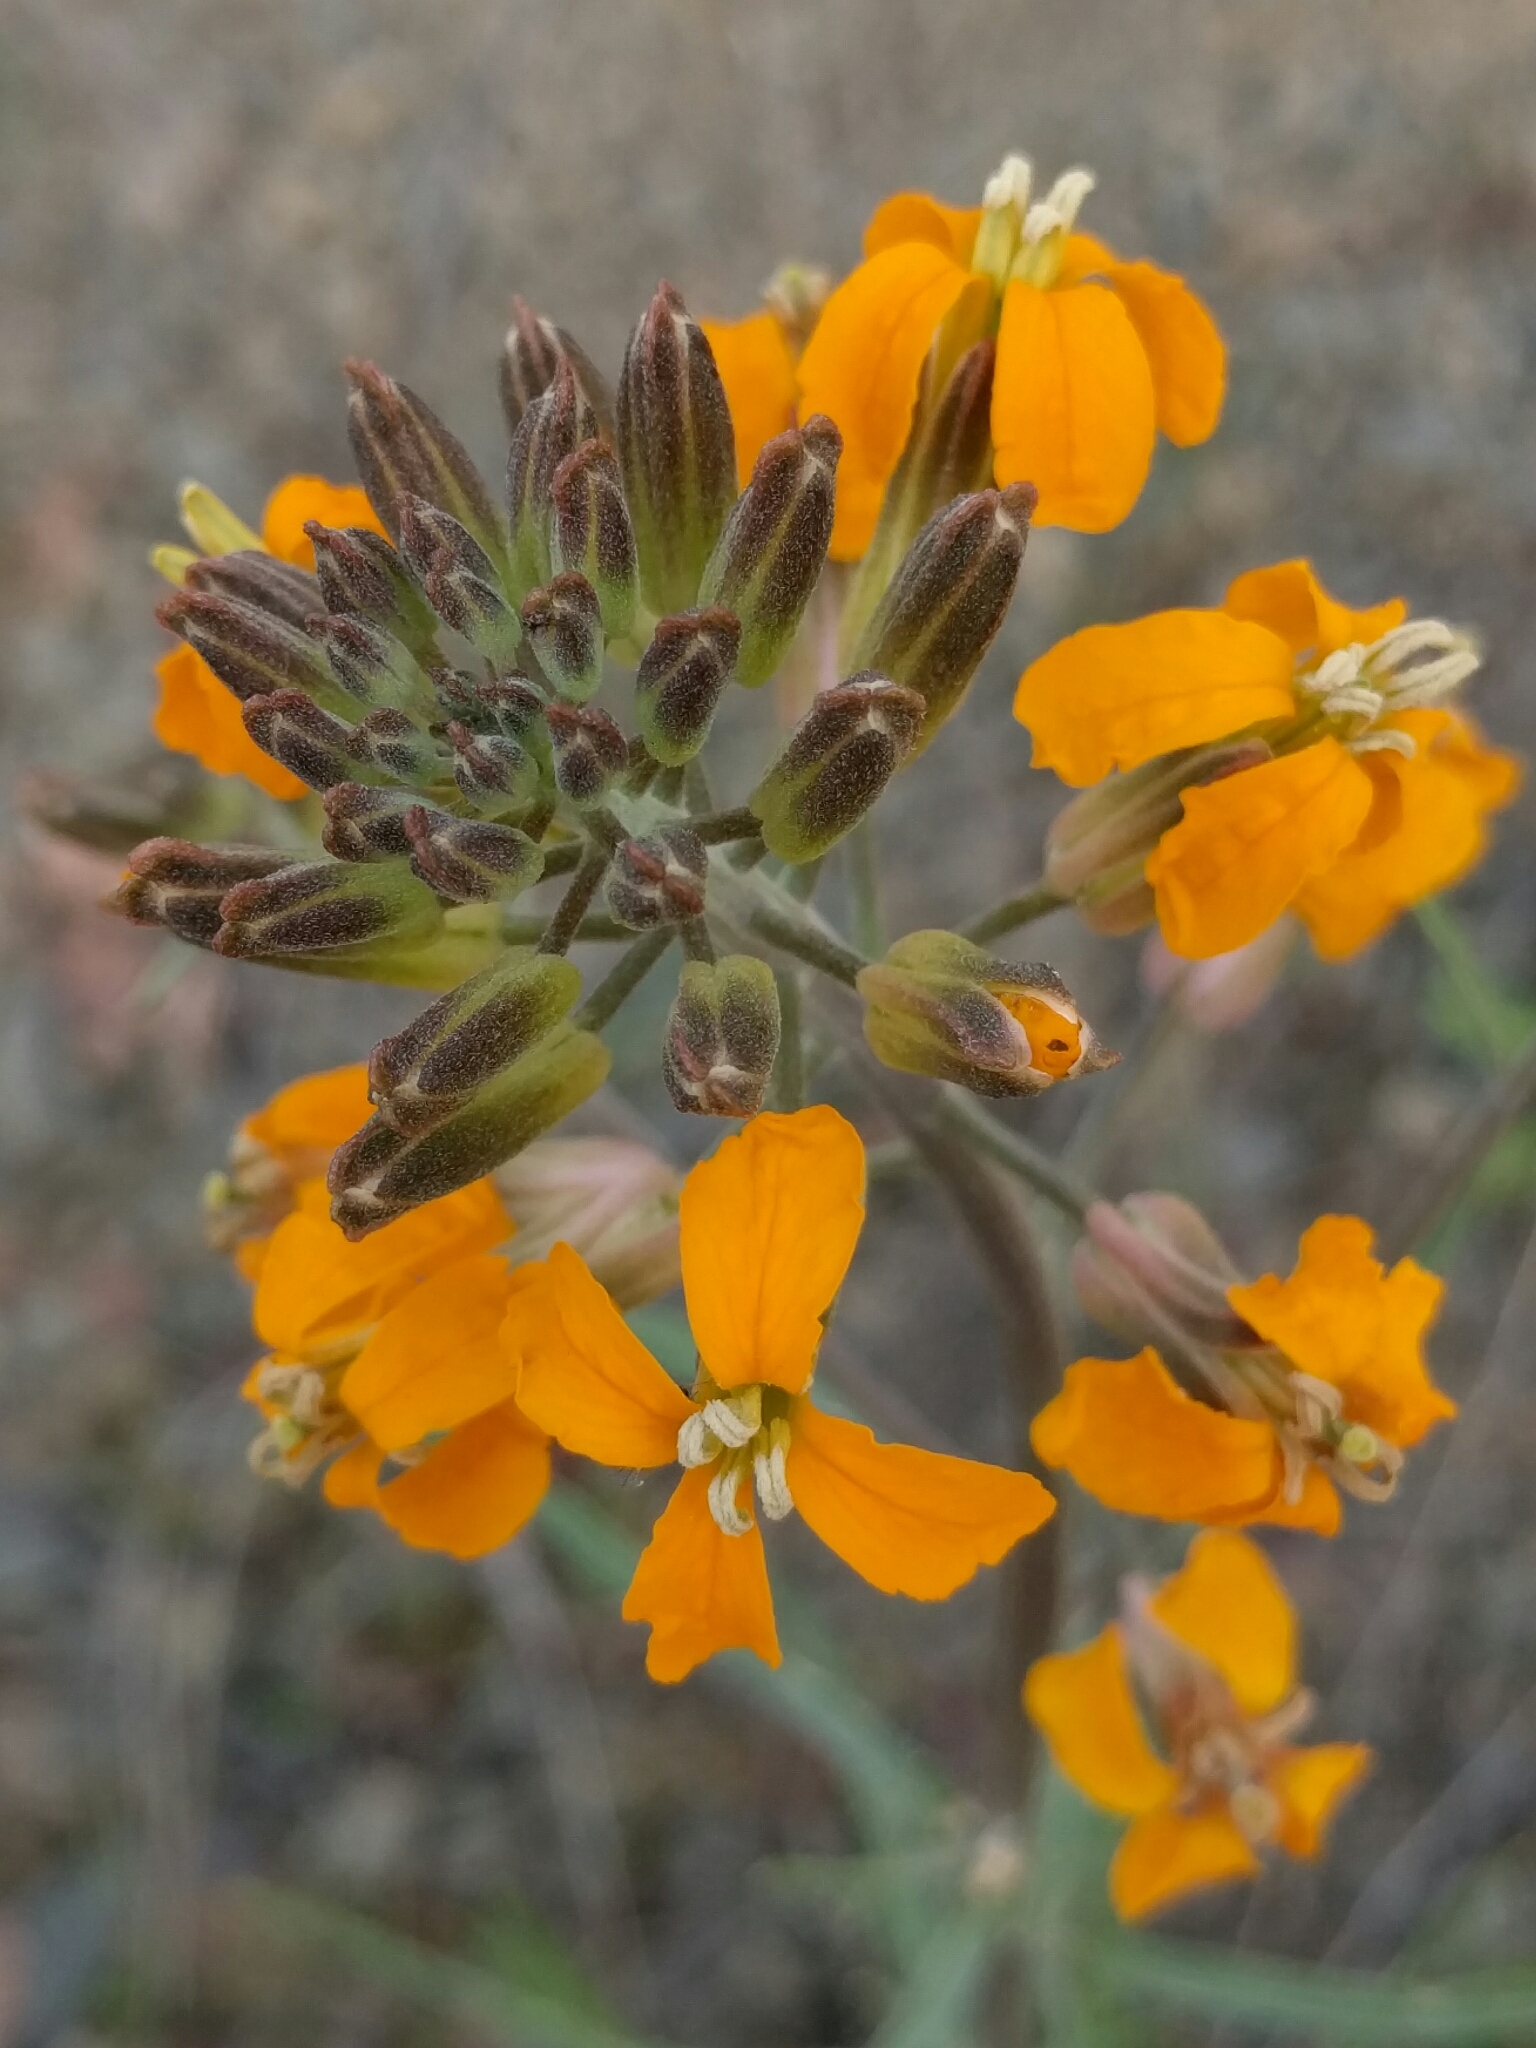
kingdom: Plantae
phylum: Tracheophyta
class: Magnoliopsida
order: Brassicales
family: Brassicaceae
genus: Erysimum
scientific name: Erysimum capitatum
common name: Western wallflower
